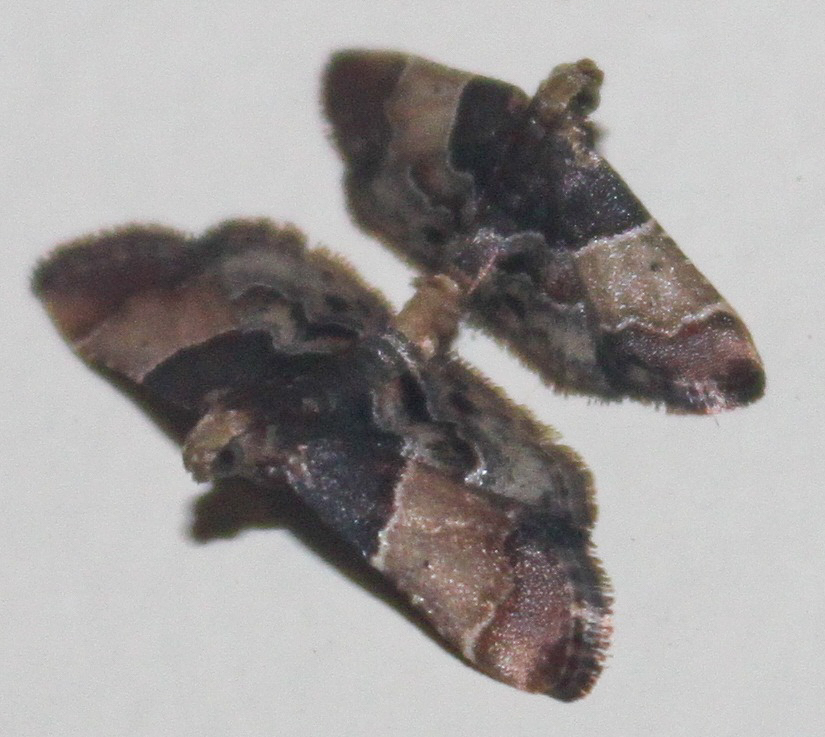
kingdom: Animalia
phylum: Arthropoda
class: Insecta
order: Lepidoptera
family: Pyralidae
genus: Pyralis
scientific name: Pyralis pictalis
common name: Painted meal moth
